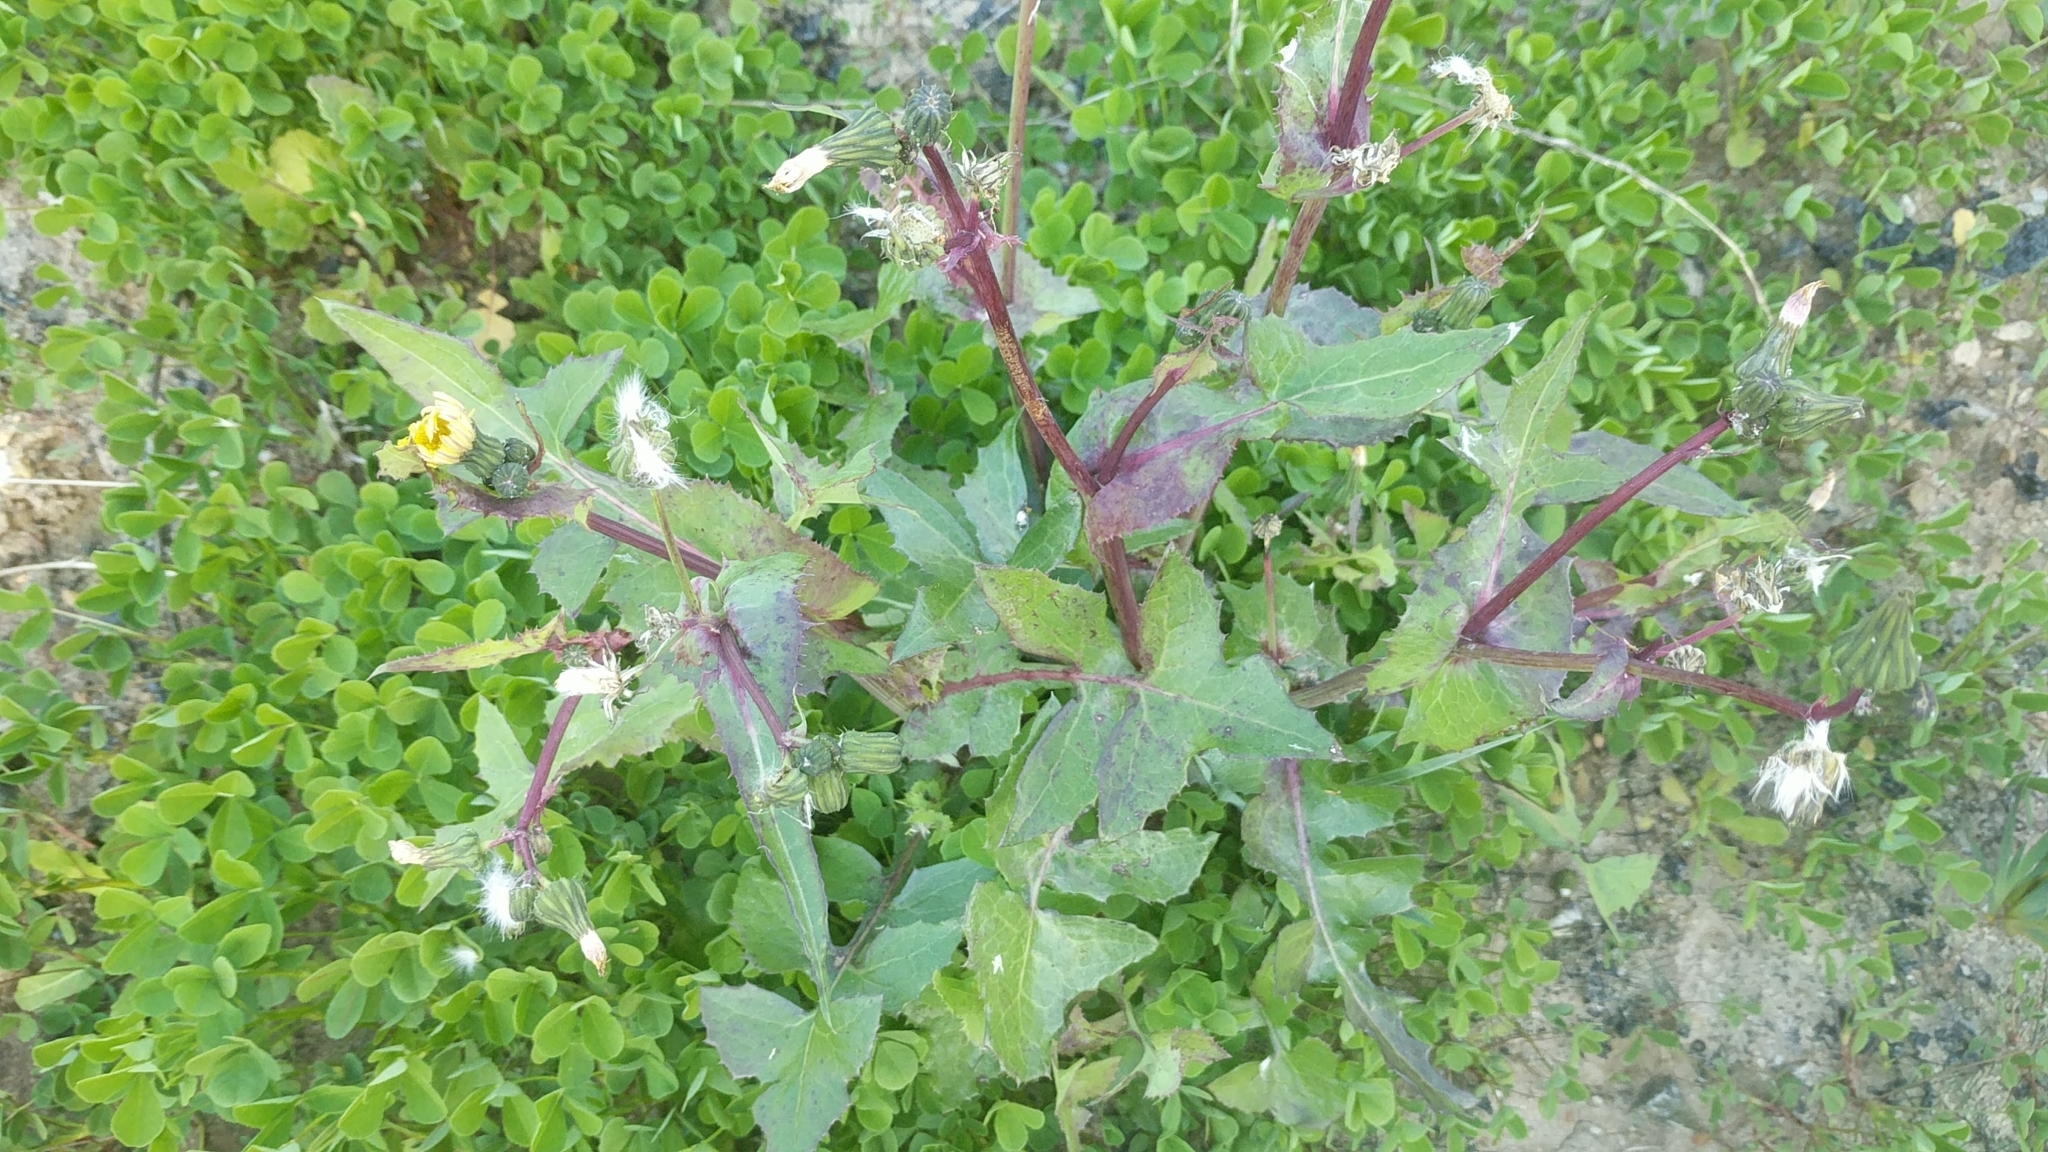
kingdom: Plantae
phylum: Tracheophyta
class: Magnoliopsida
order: Asterales
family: Asteraceae
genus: Sonchus
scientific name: Sonchus oleraceus
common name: Common sowthistle
